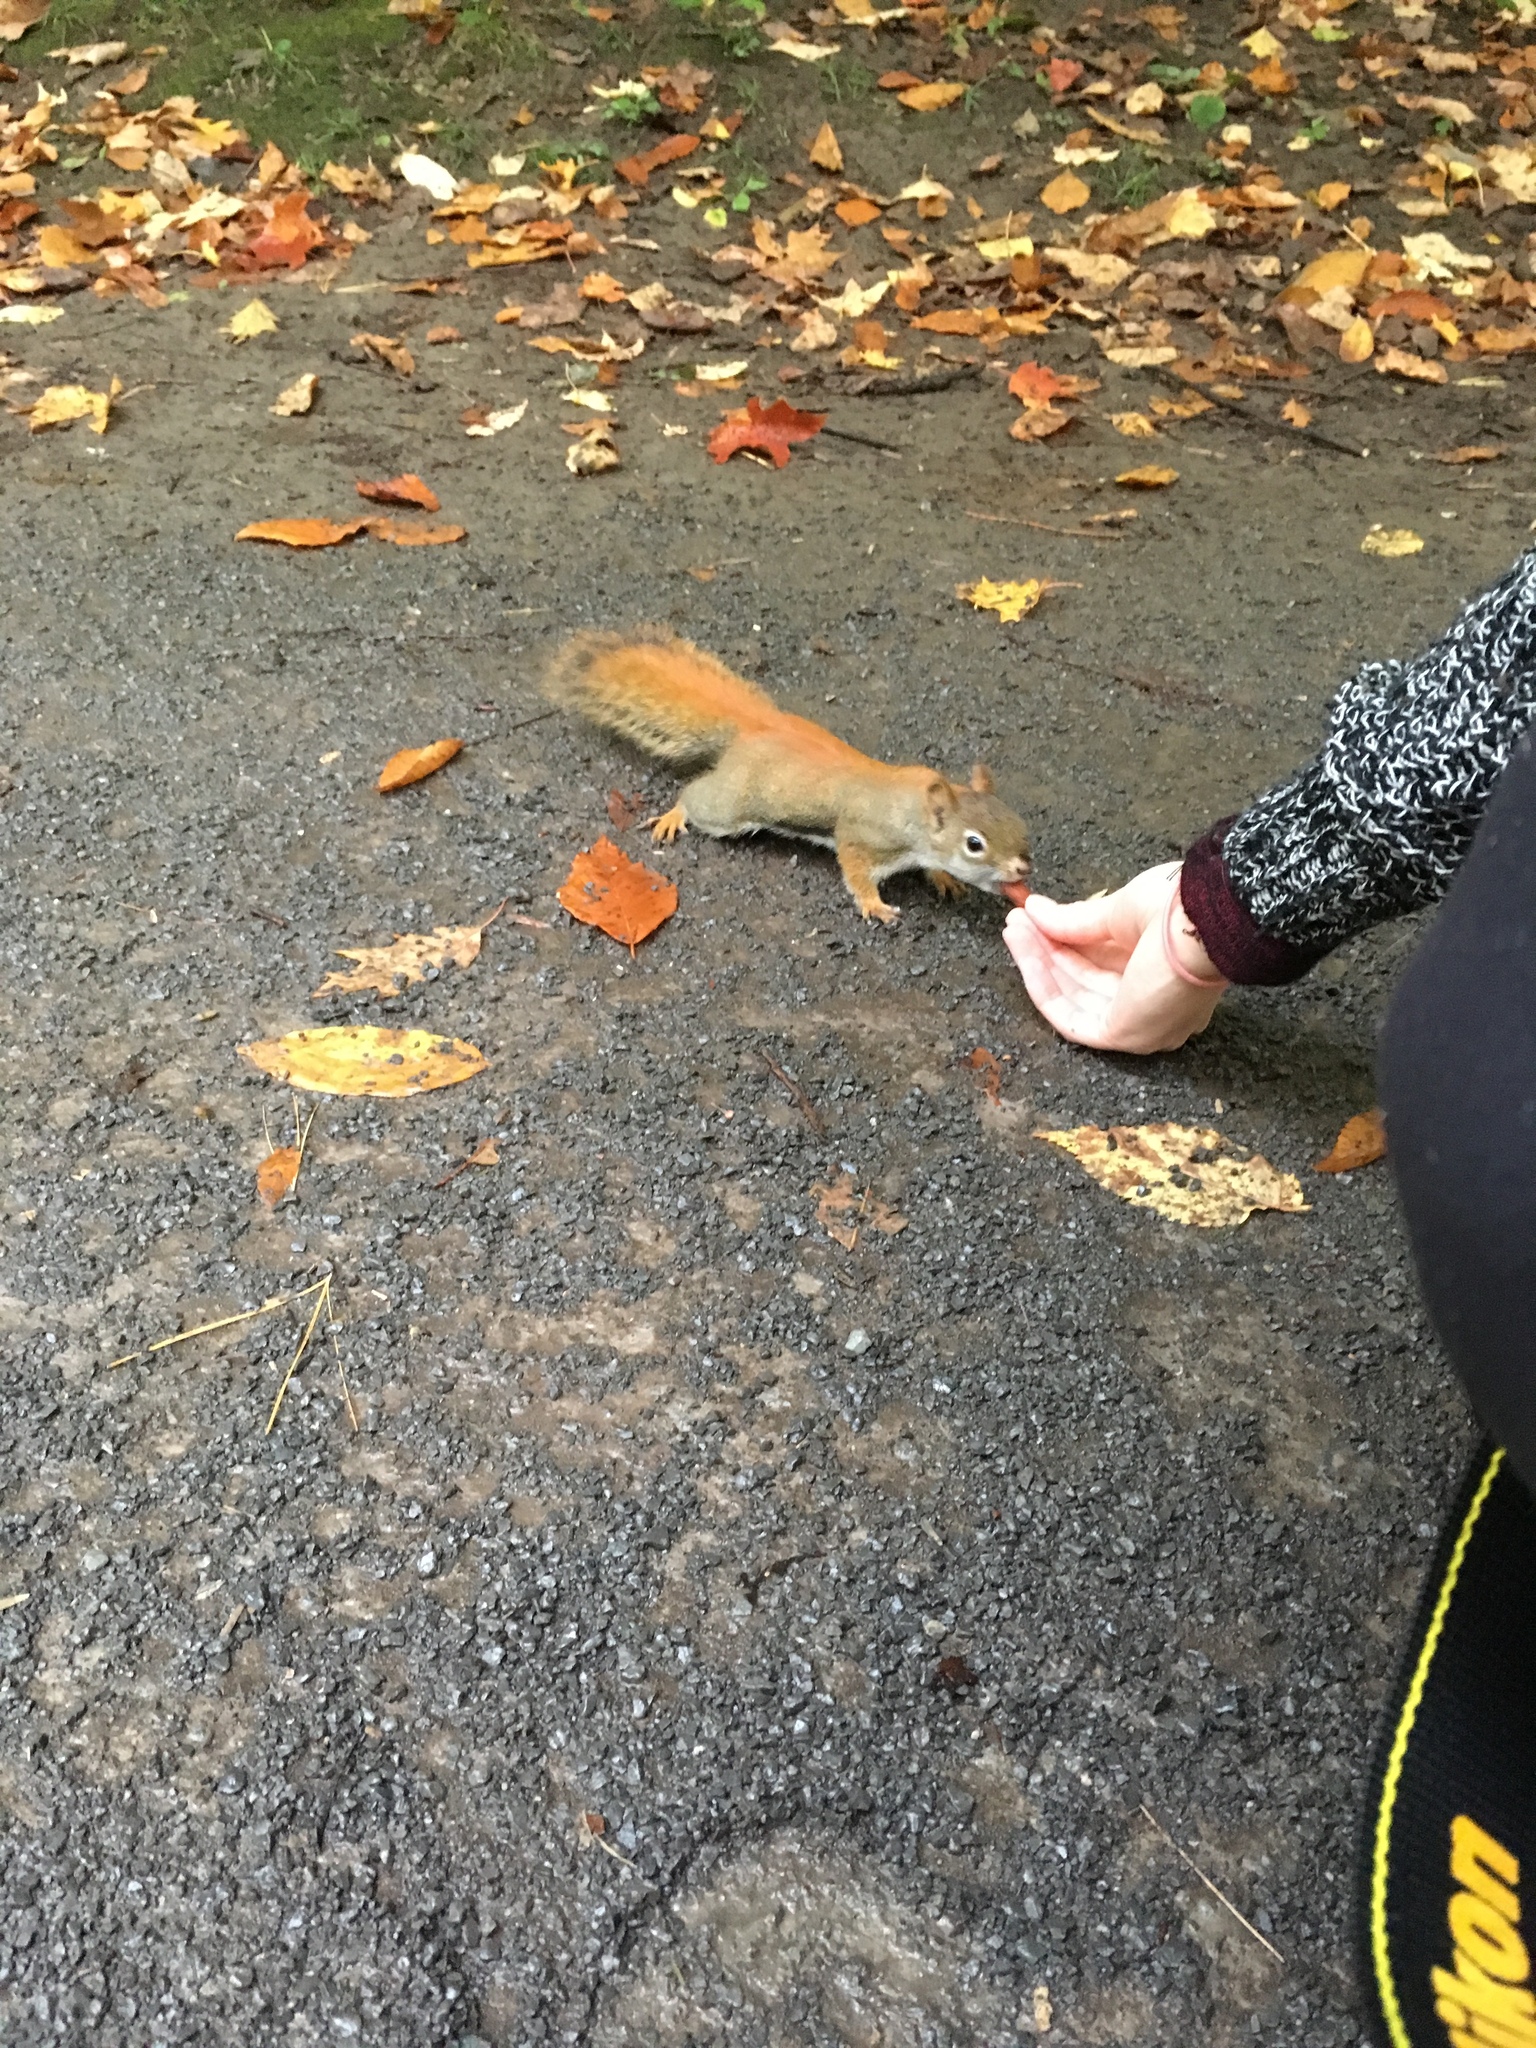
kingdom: Animalia
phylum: Chordata
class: Mammalia
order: Rodentia
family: Sciuridae
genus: Tamiasciurus
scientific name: Tamiasciurus hudsonicus
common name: Red squirrel
